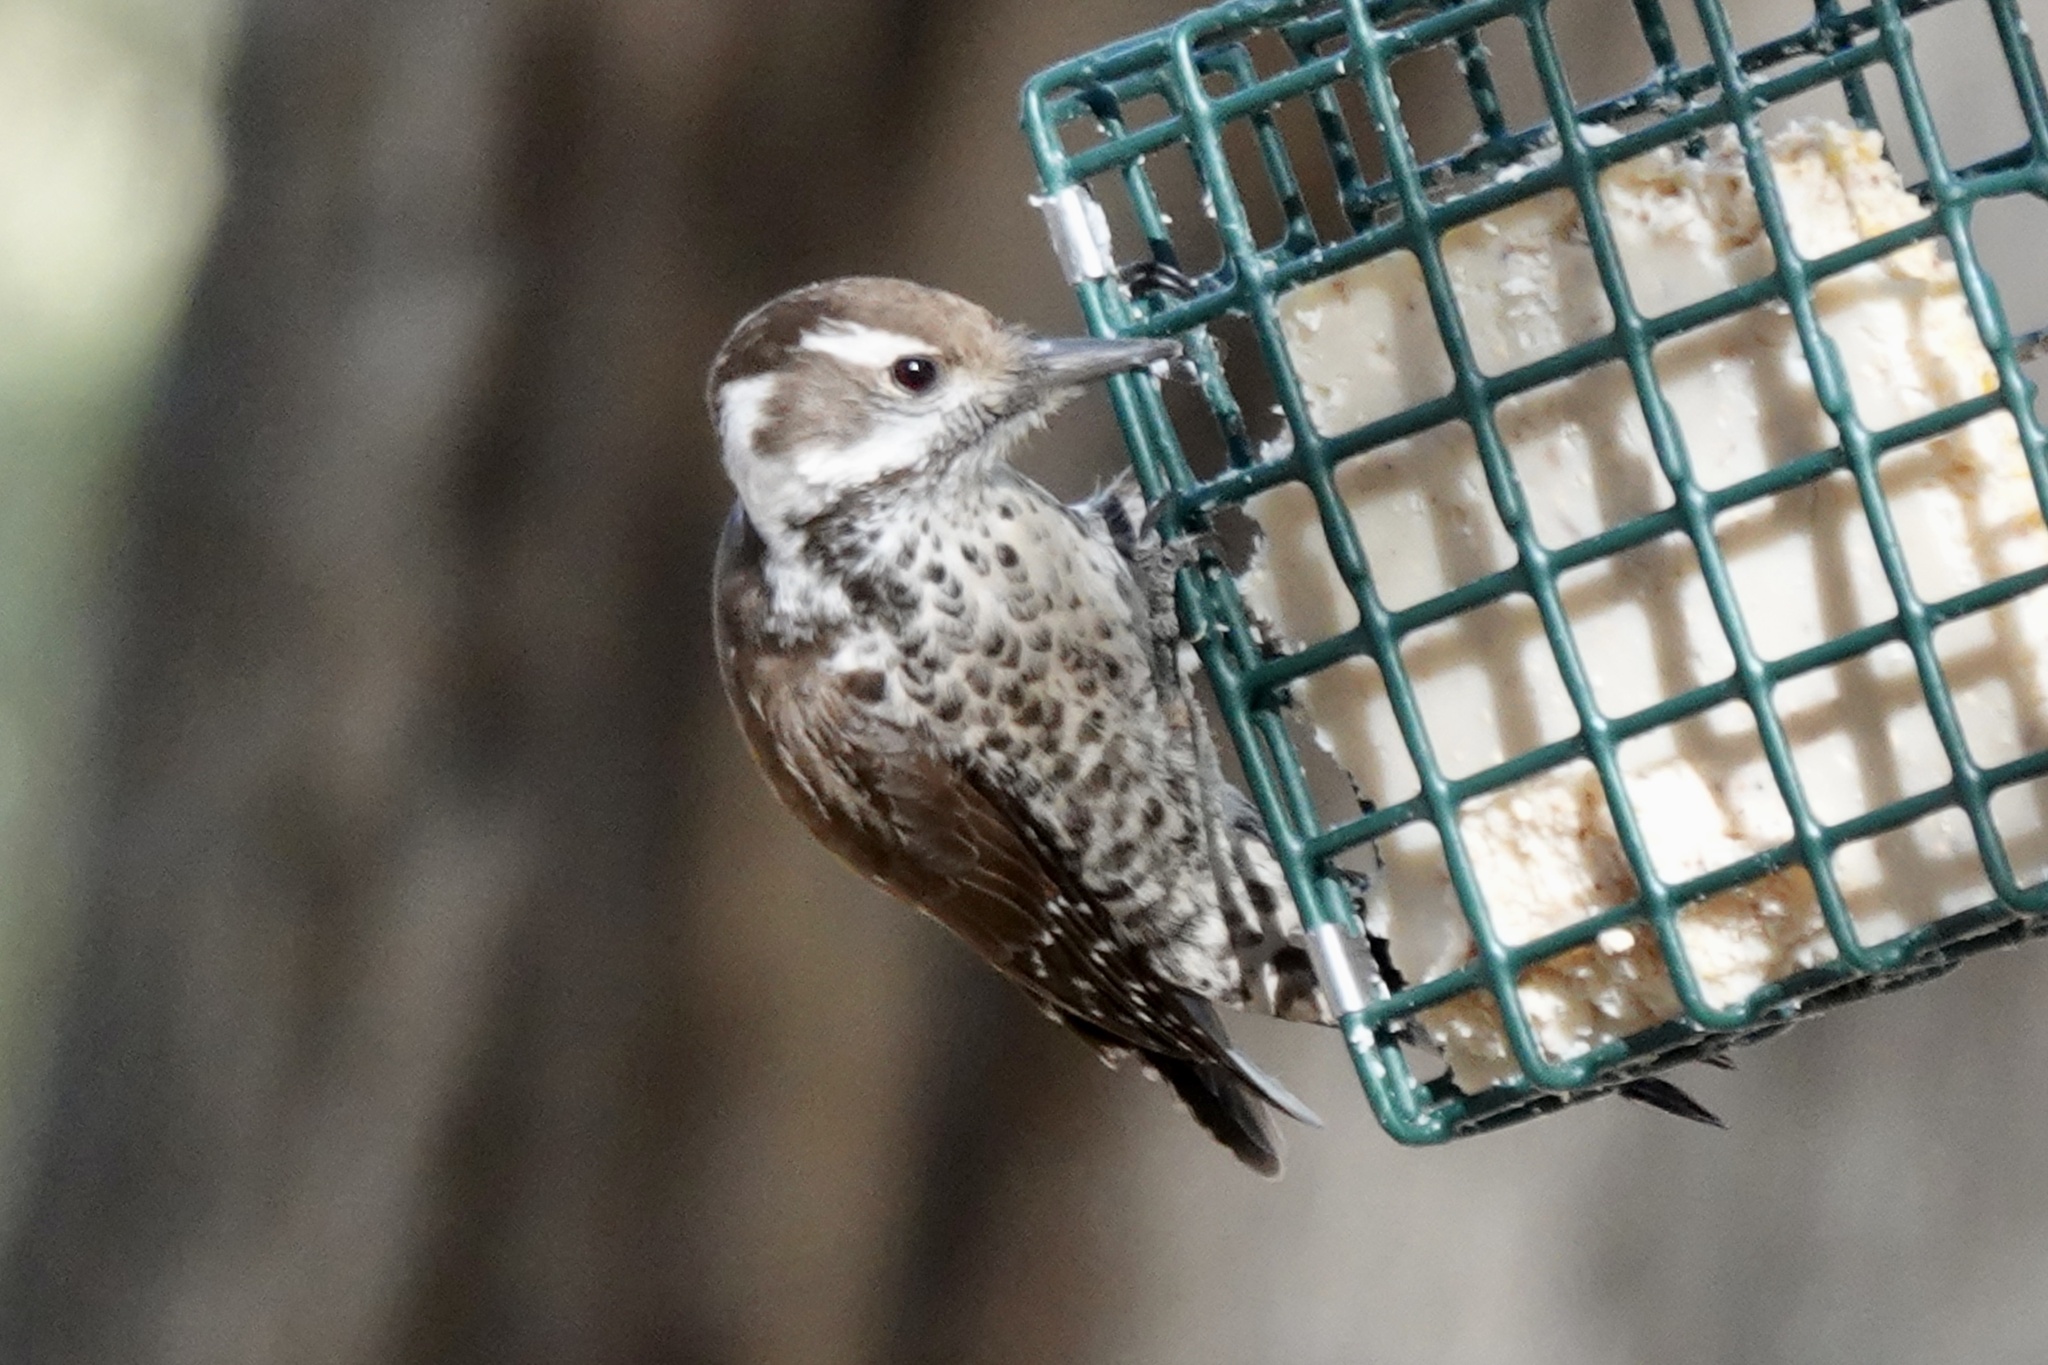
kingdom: Animalia
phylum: Chordata
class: Aves
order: Piciformes
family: Picidae
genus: Leuconotopicus
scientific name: Leuconotopicus arizonae
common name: Arizona woodpecker
